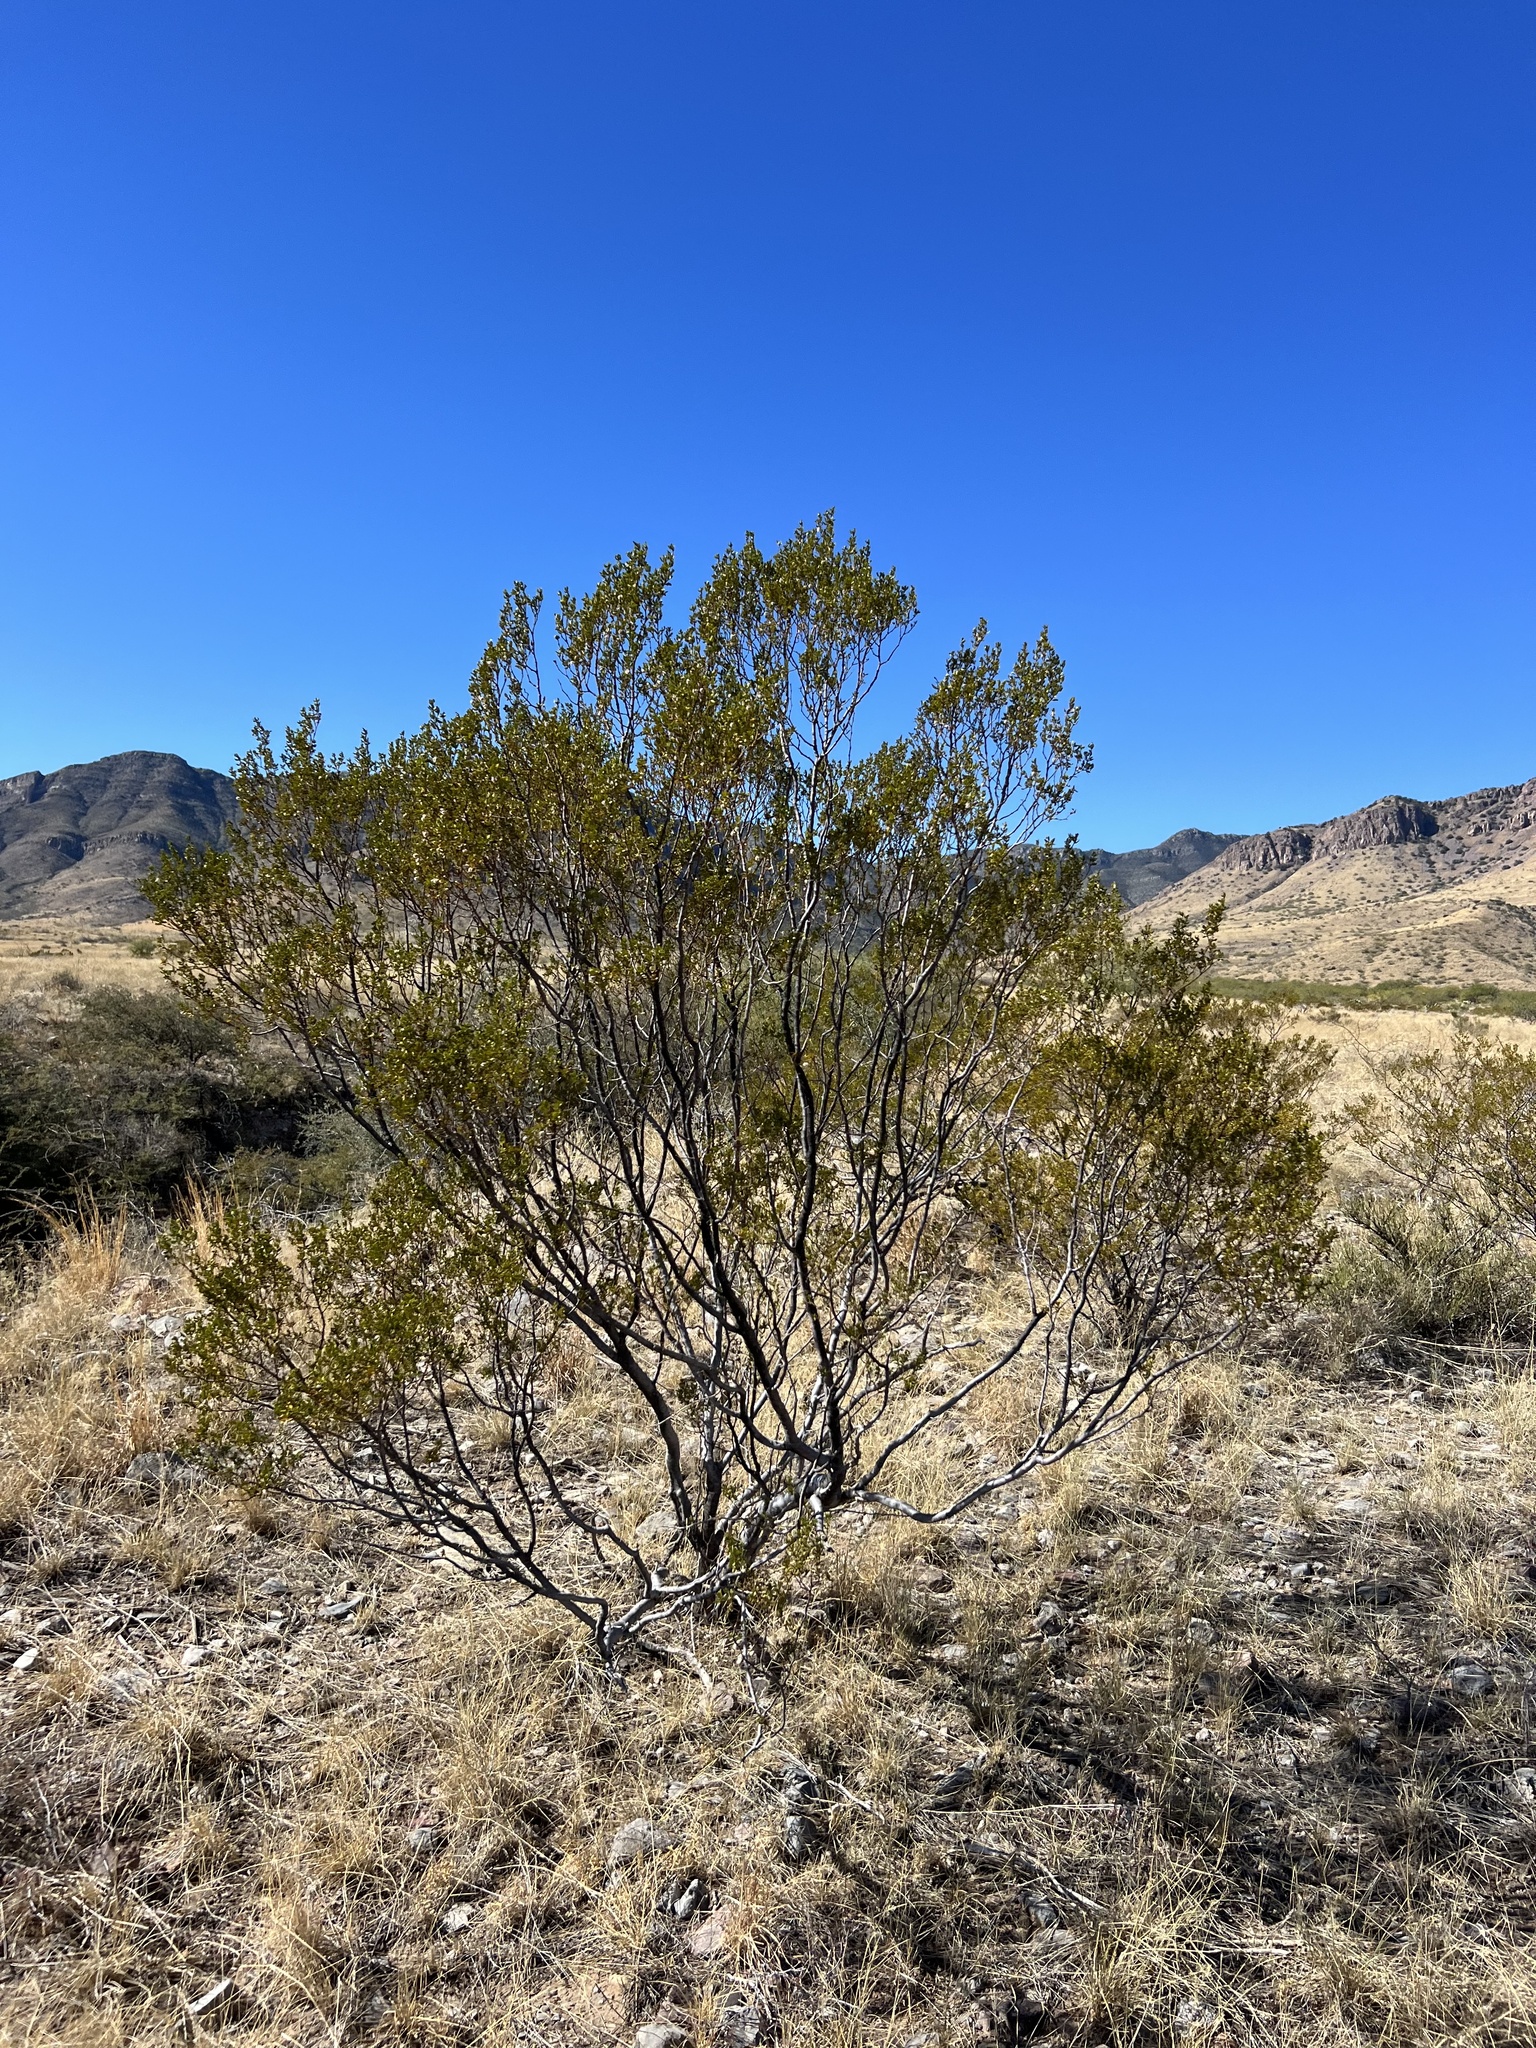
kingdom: Plantae
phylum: Tracheophyta
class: Magnoliopsida
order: Zygophyllales
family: Zygophyllaceae
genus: Larrea
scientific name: Larrea tridentata
